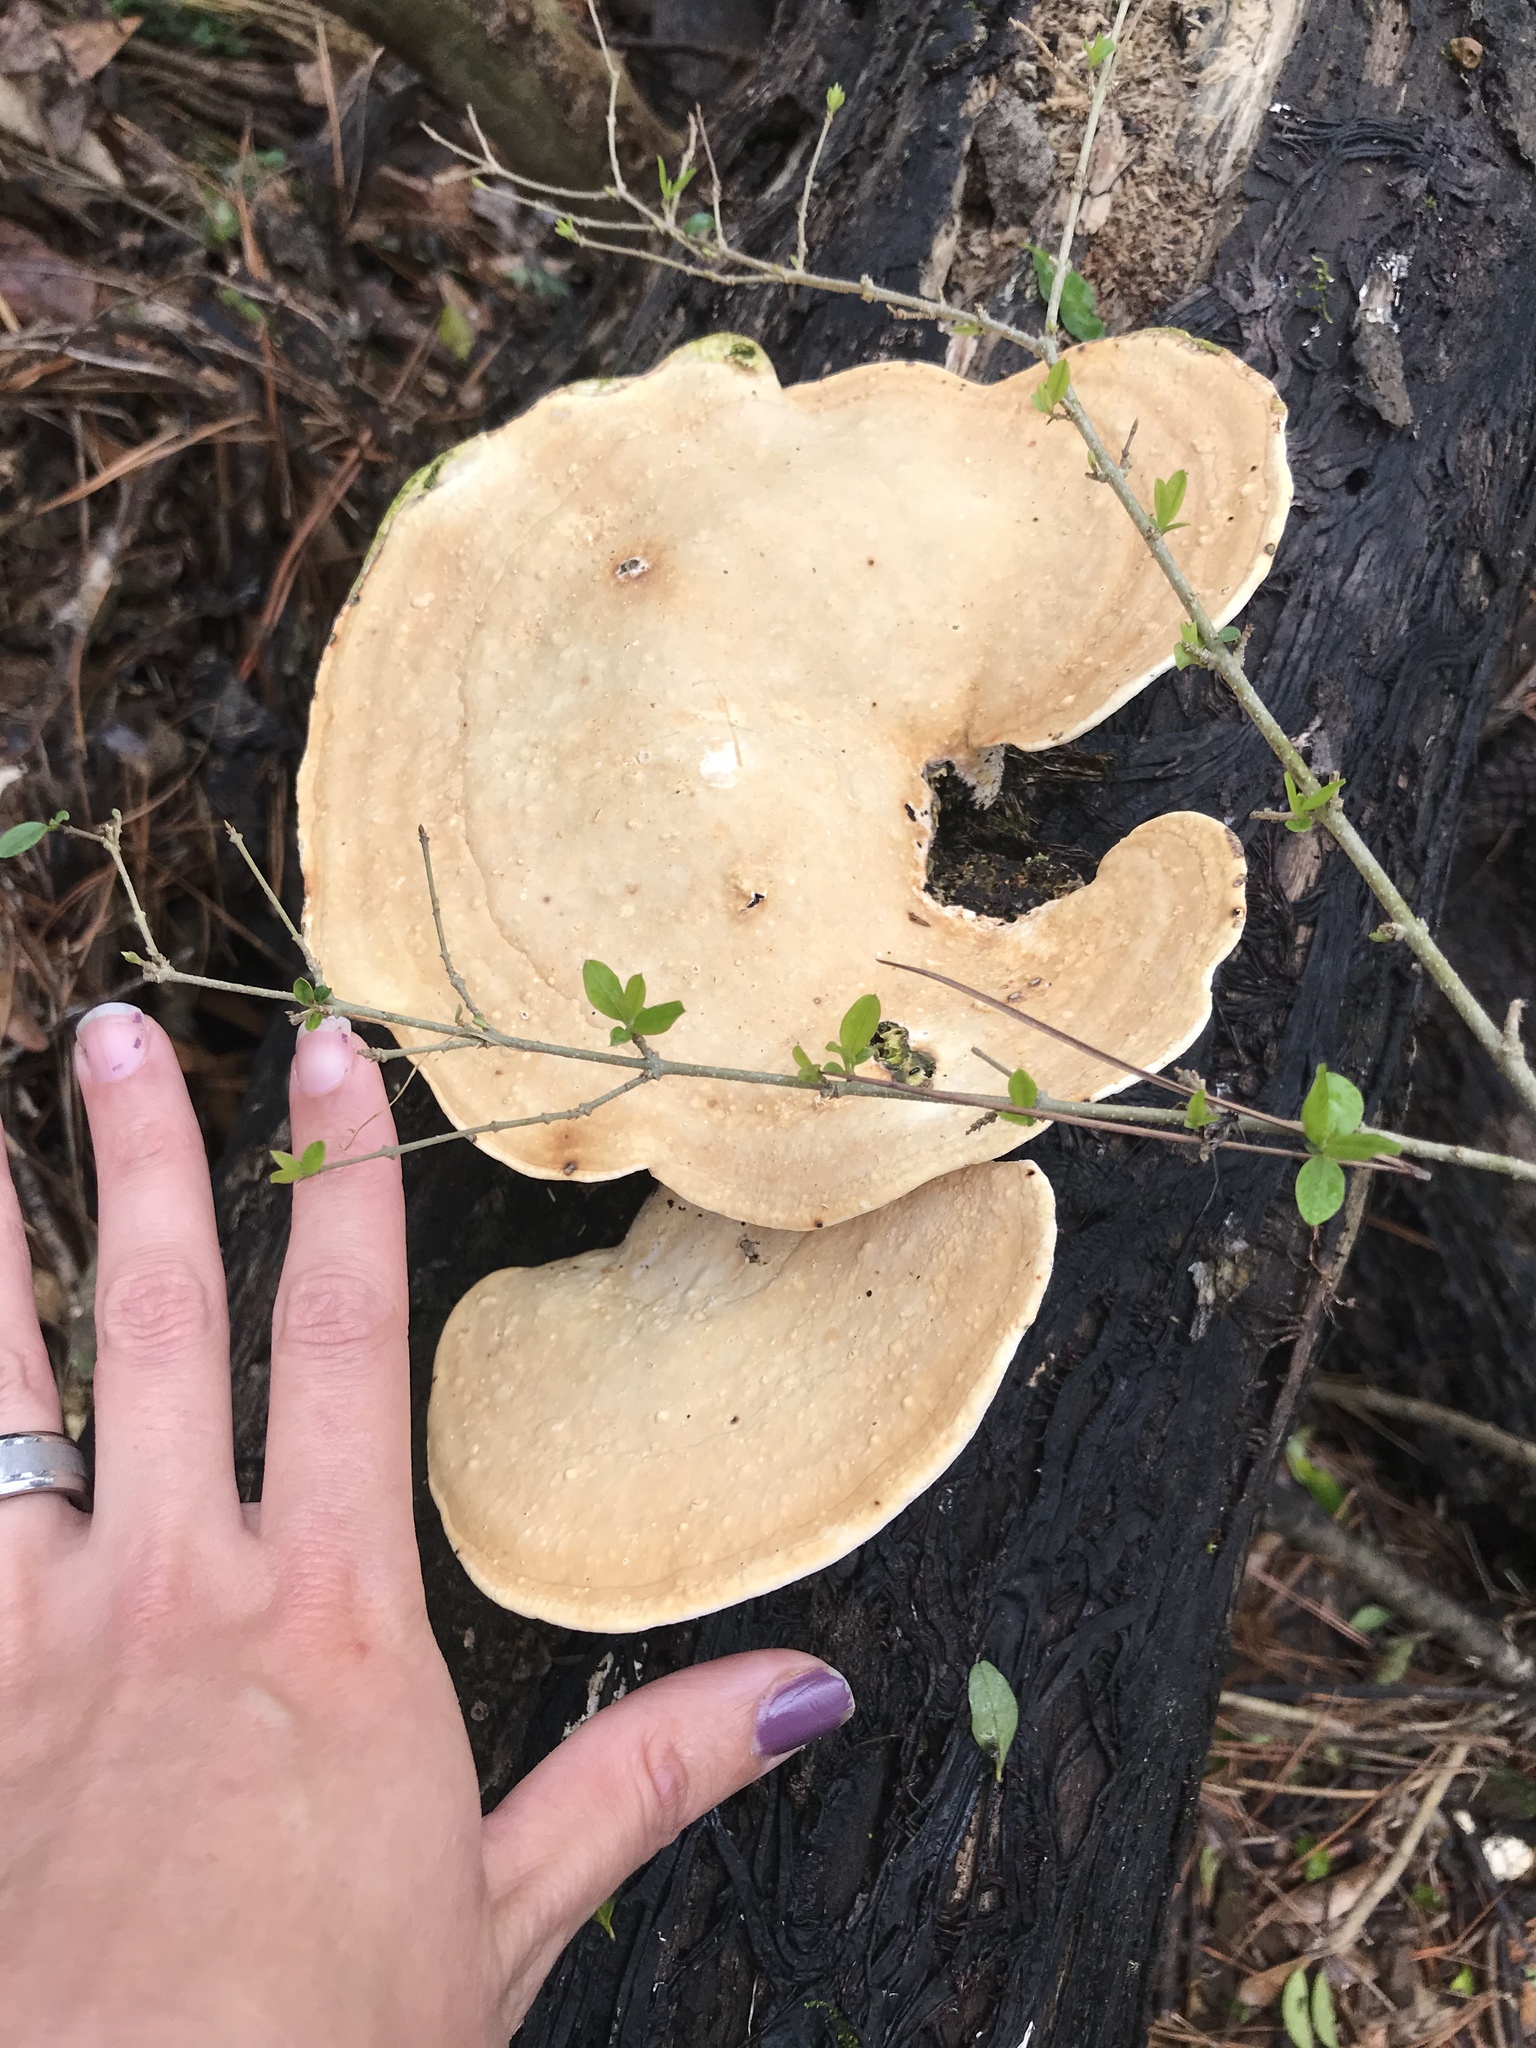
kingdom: Fungi
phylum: Basidiomycota
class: Agaricomycetes
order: Polyporales
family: Polyporaceae
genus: Trametes
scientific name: Trametes
